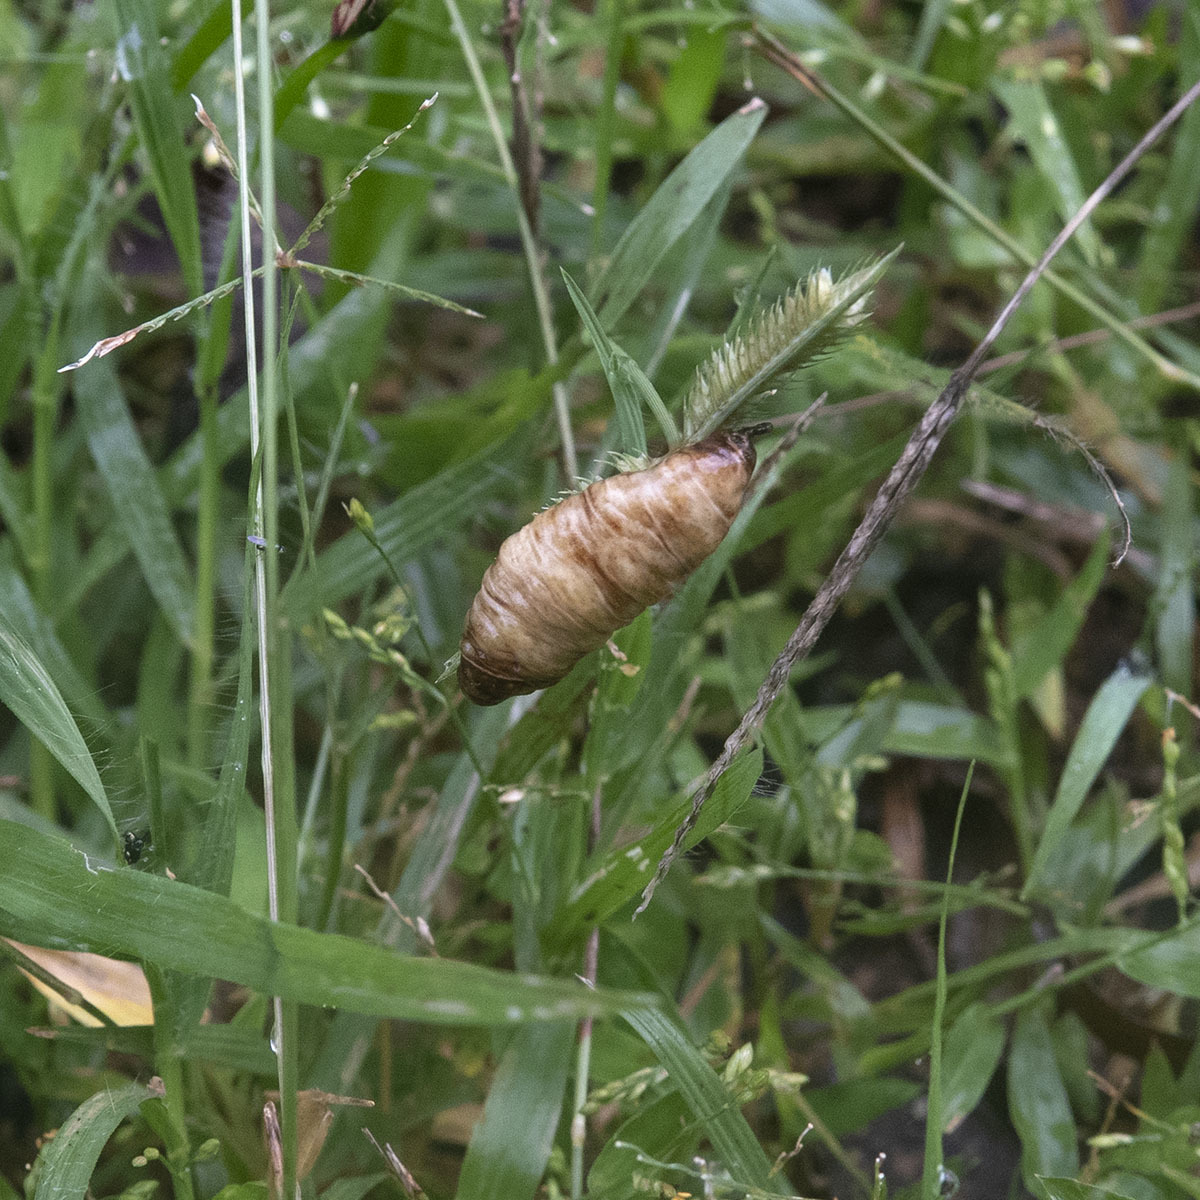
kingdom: Animalia
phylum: Mollusca
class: Gastropoda
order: Systellommatophora
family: Veronicellidae
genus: Laevicaulis
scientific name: Laevicaulis haroldi
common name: Caterpillar slug
